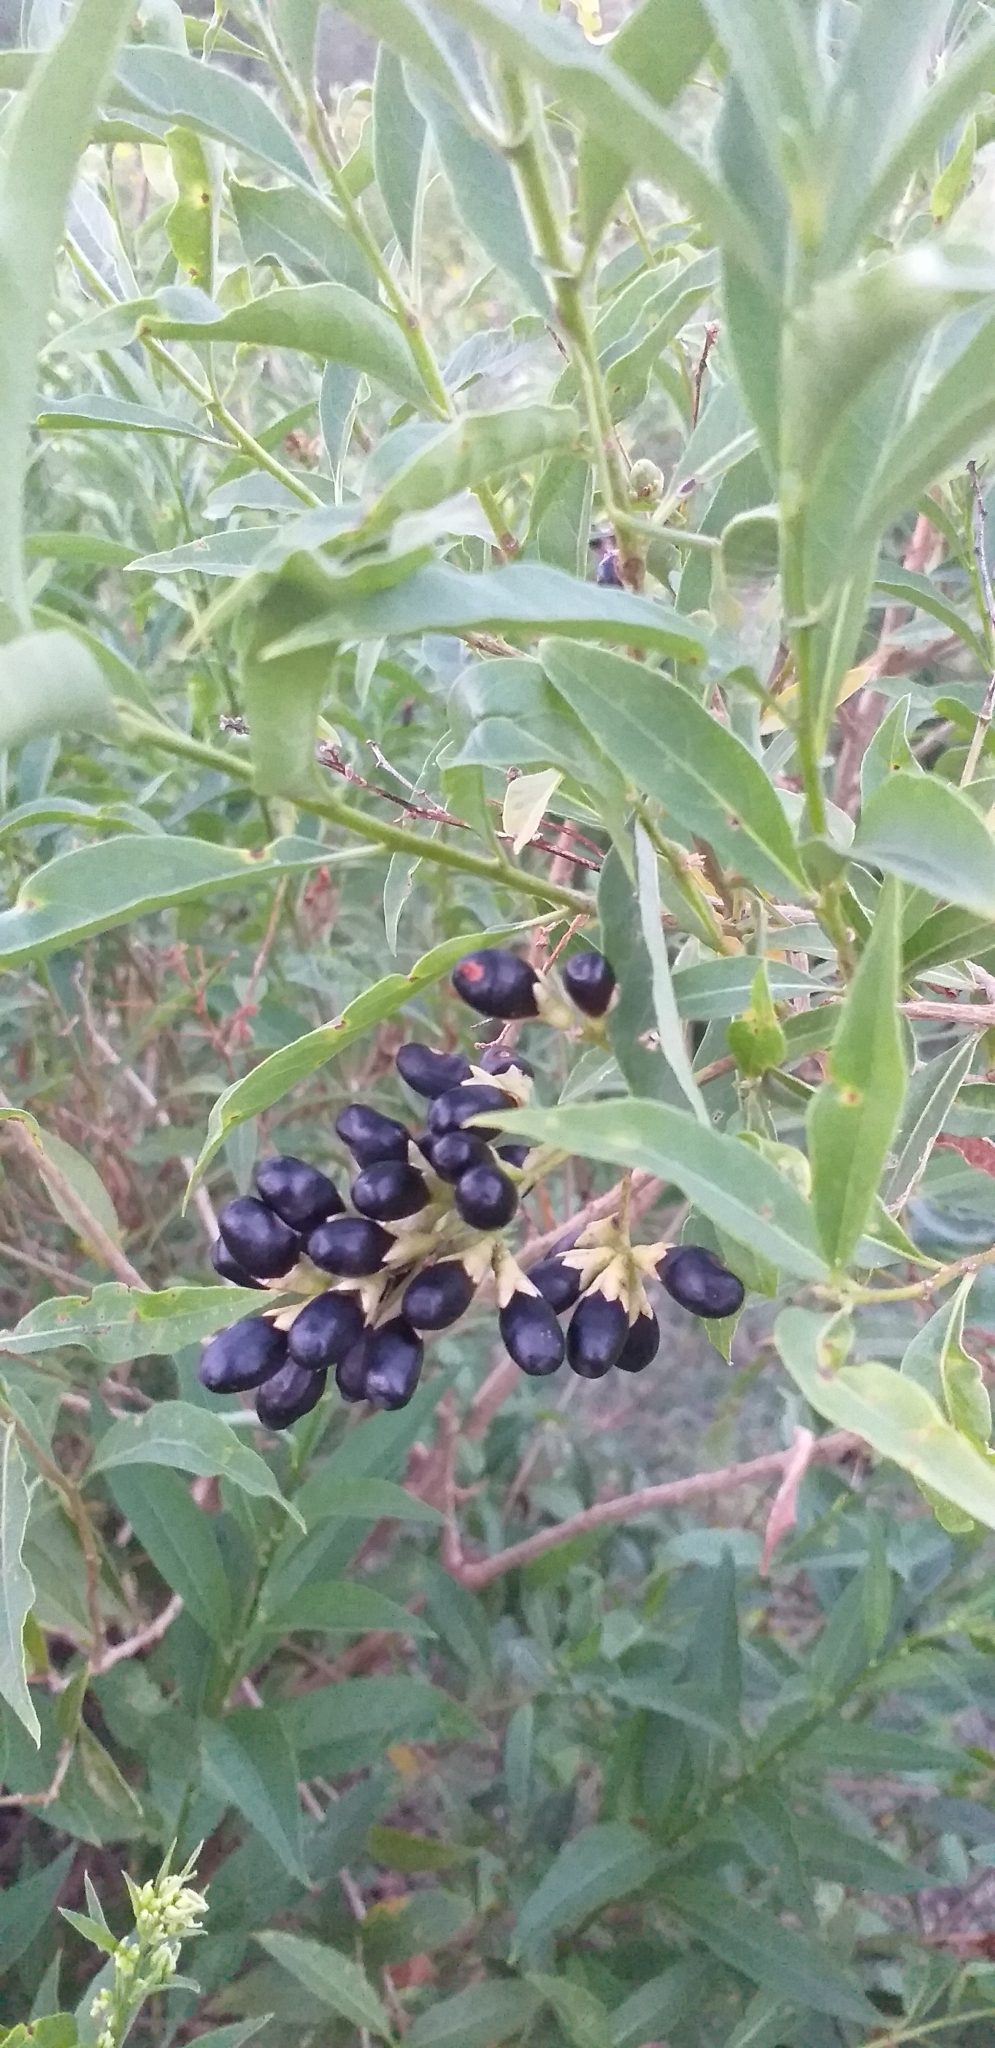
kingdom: Plantae
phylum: Tracheophyta
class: Magnoliopsida
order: Solanales
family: Solanaceae
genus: Cestrum
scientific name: Cestrum parqui
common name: Chilean cestrum
